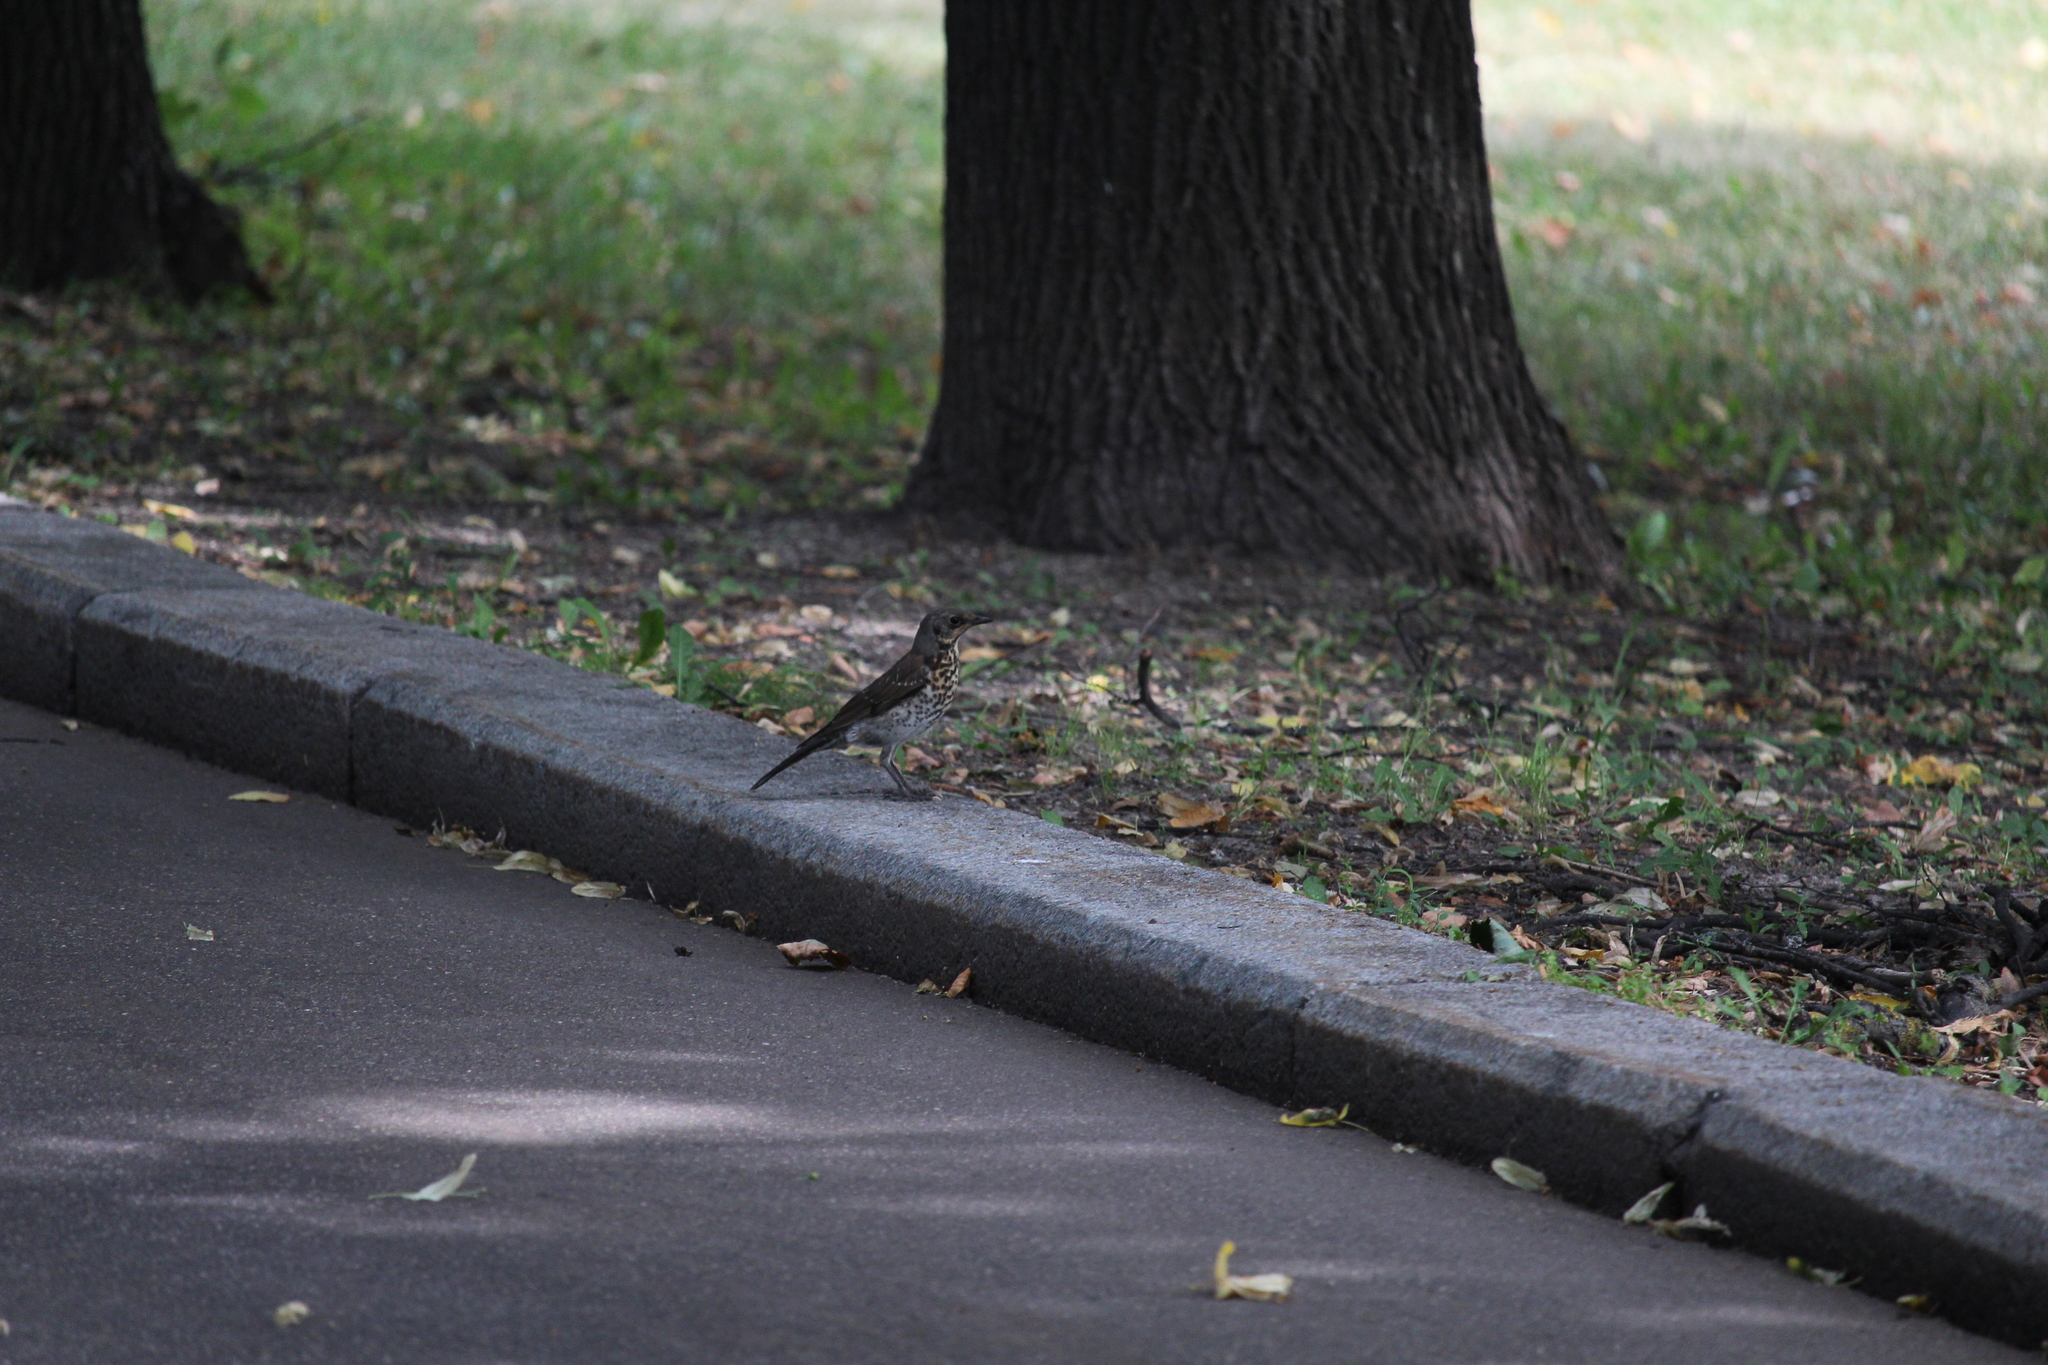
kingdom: Animalia
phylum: Chordata
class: Aves
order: Passeriformes
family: Turdidae
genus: Turdus
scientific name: Turdus pilaris
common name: Fieldfare
